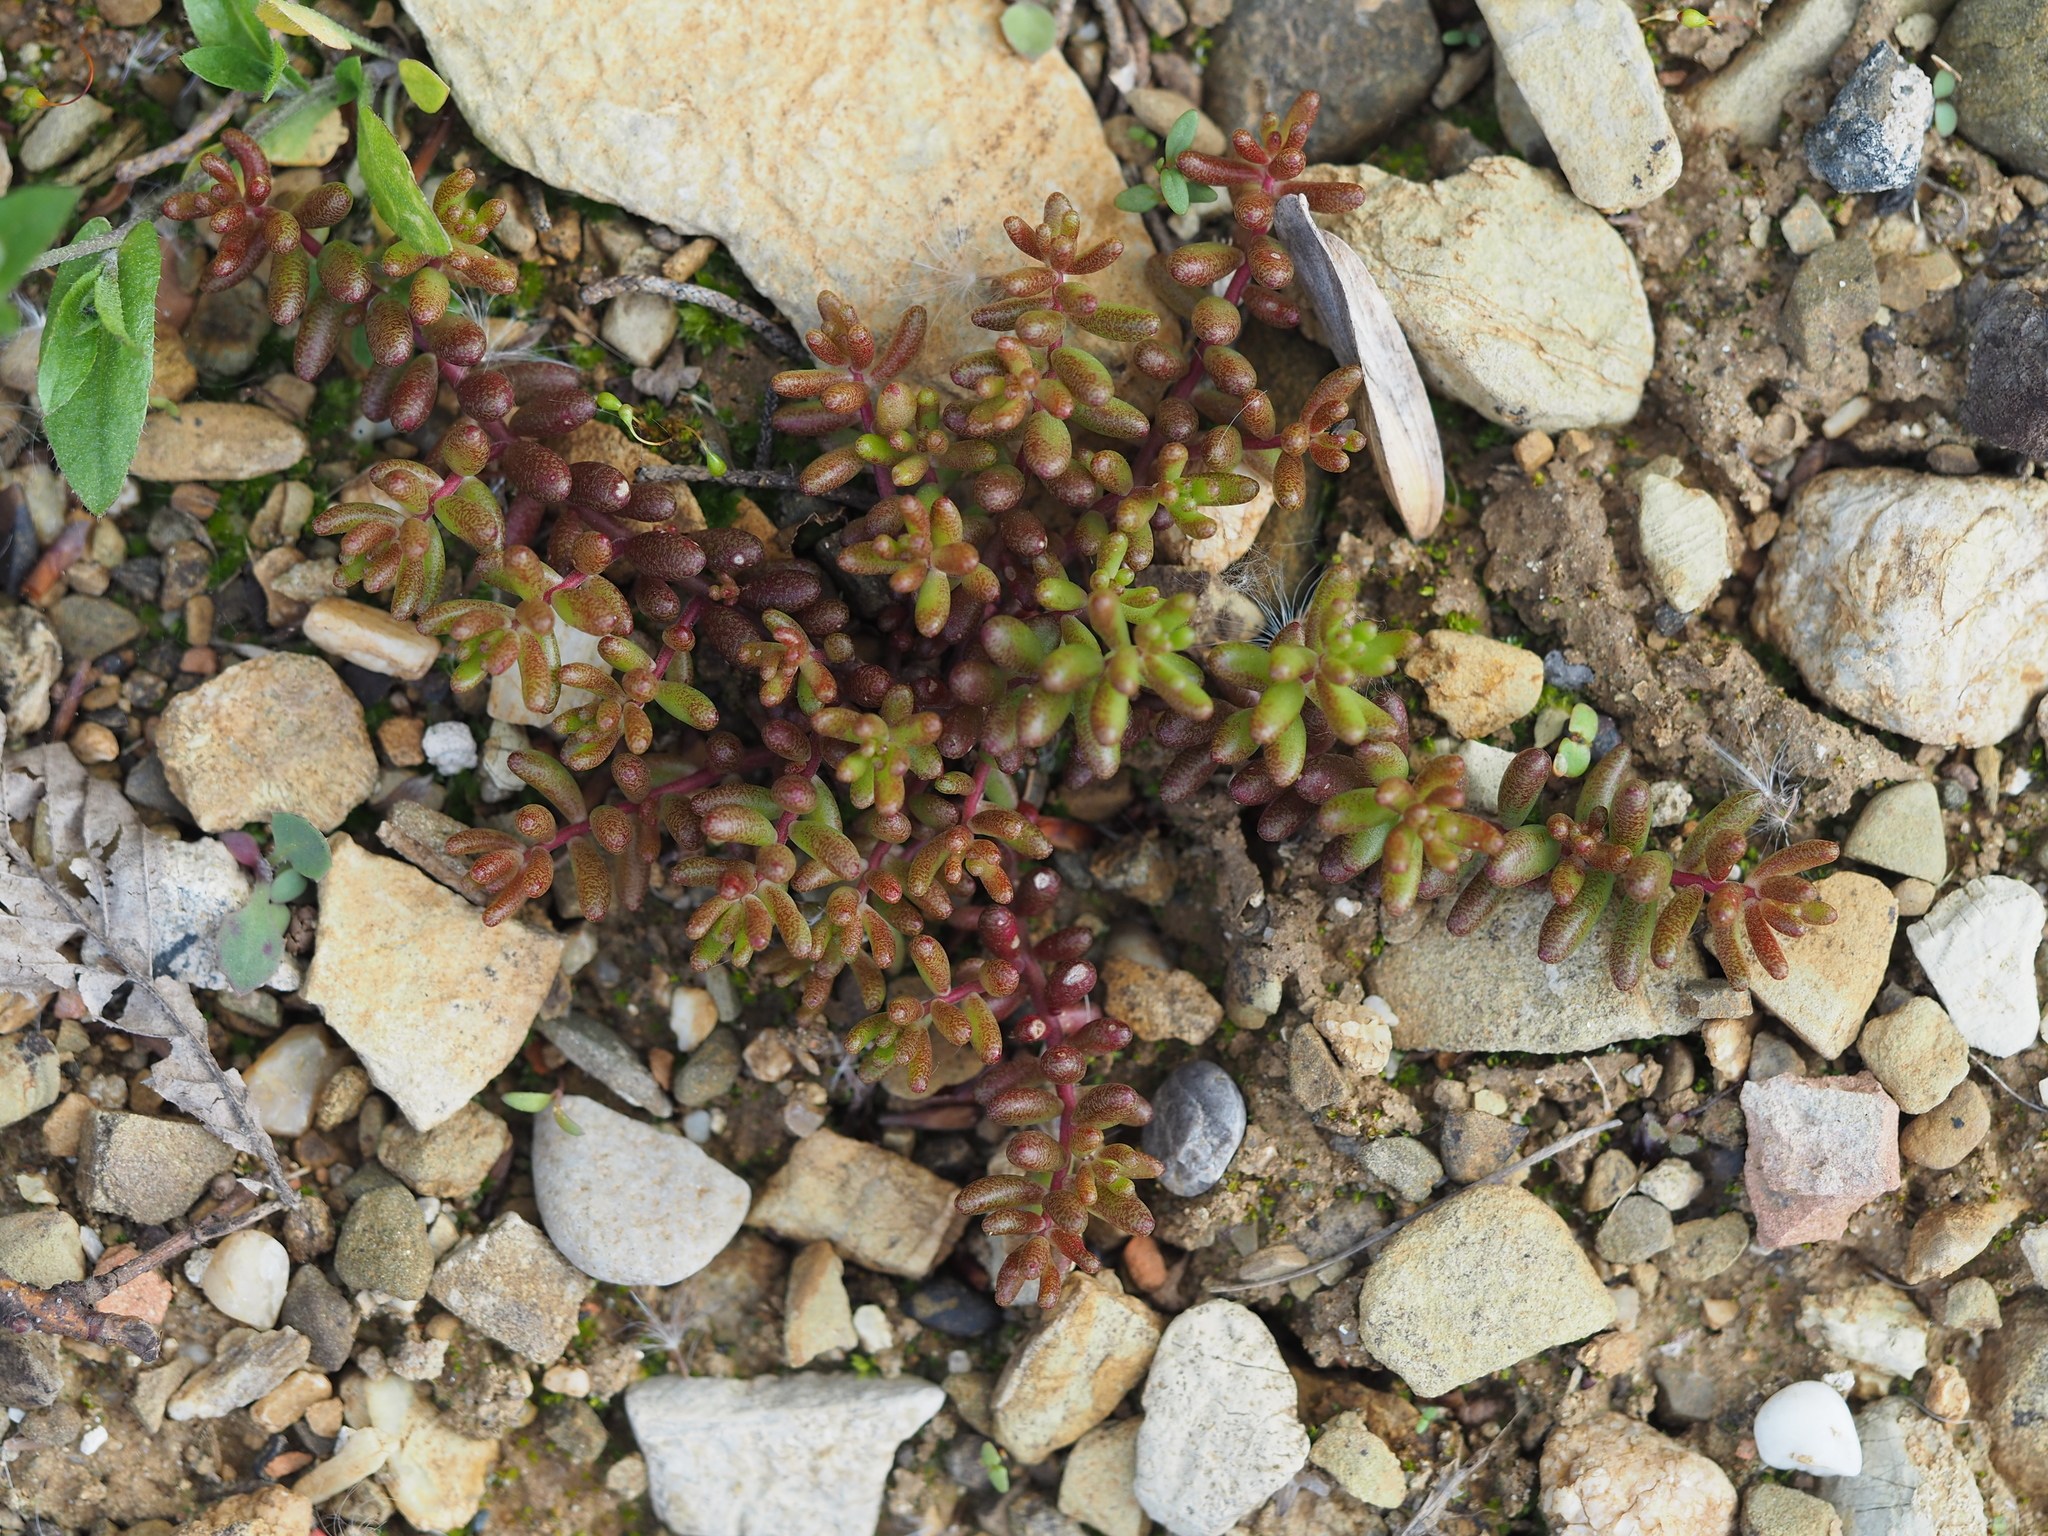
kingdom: Plantae
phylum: Tracheophyta
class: Magnoliopsida
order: Saxifragales
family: Crassulaceae
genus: Sedum
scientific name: Sedum album
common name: White stonecrop
